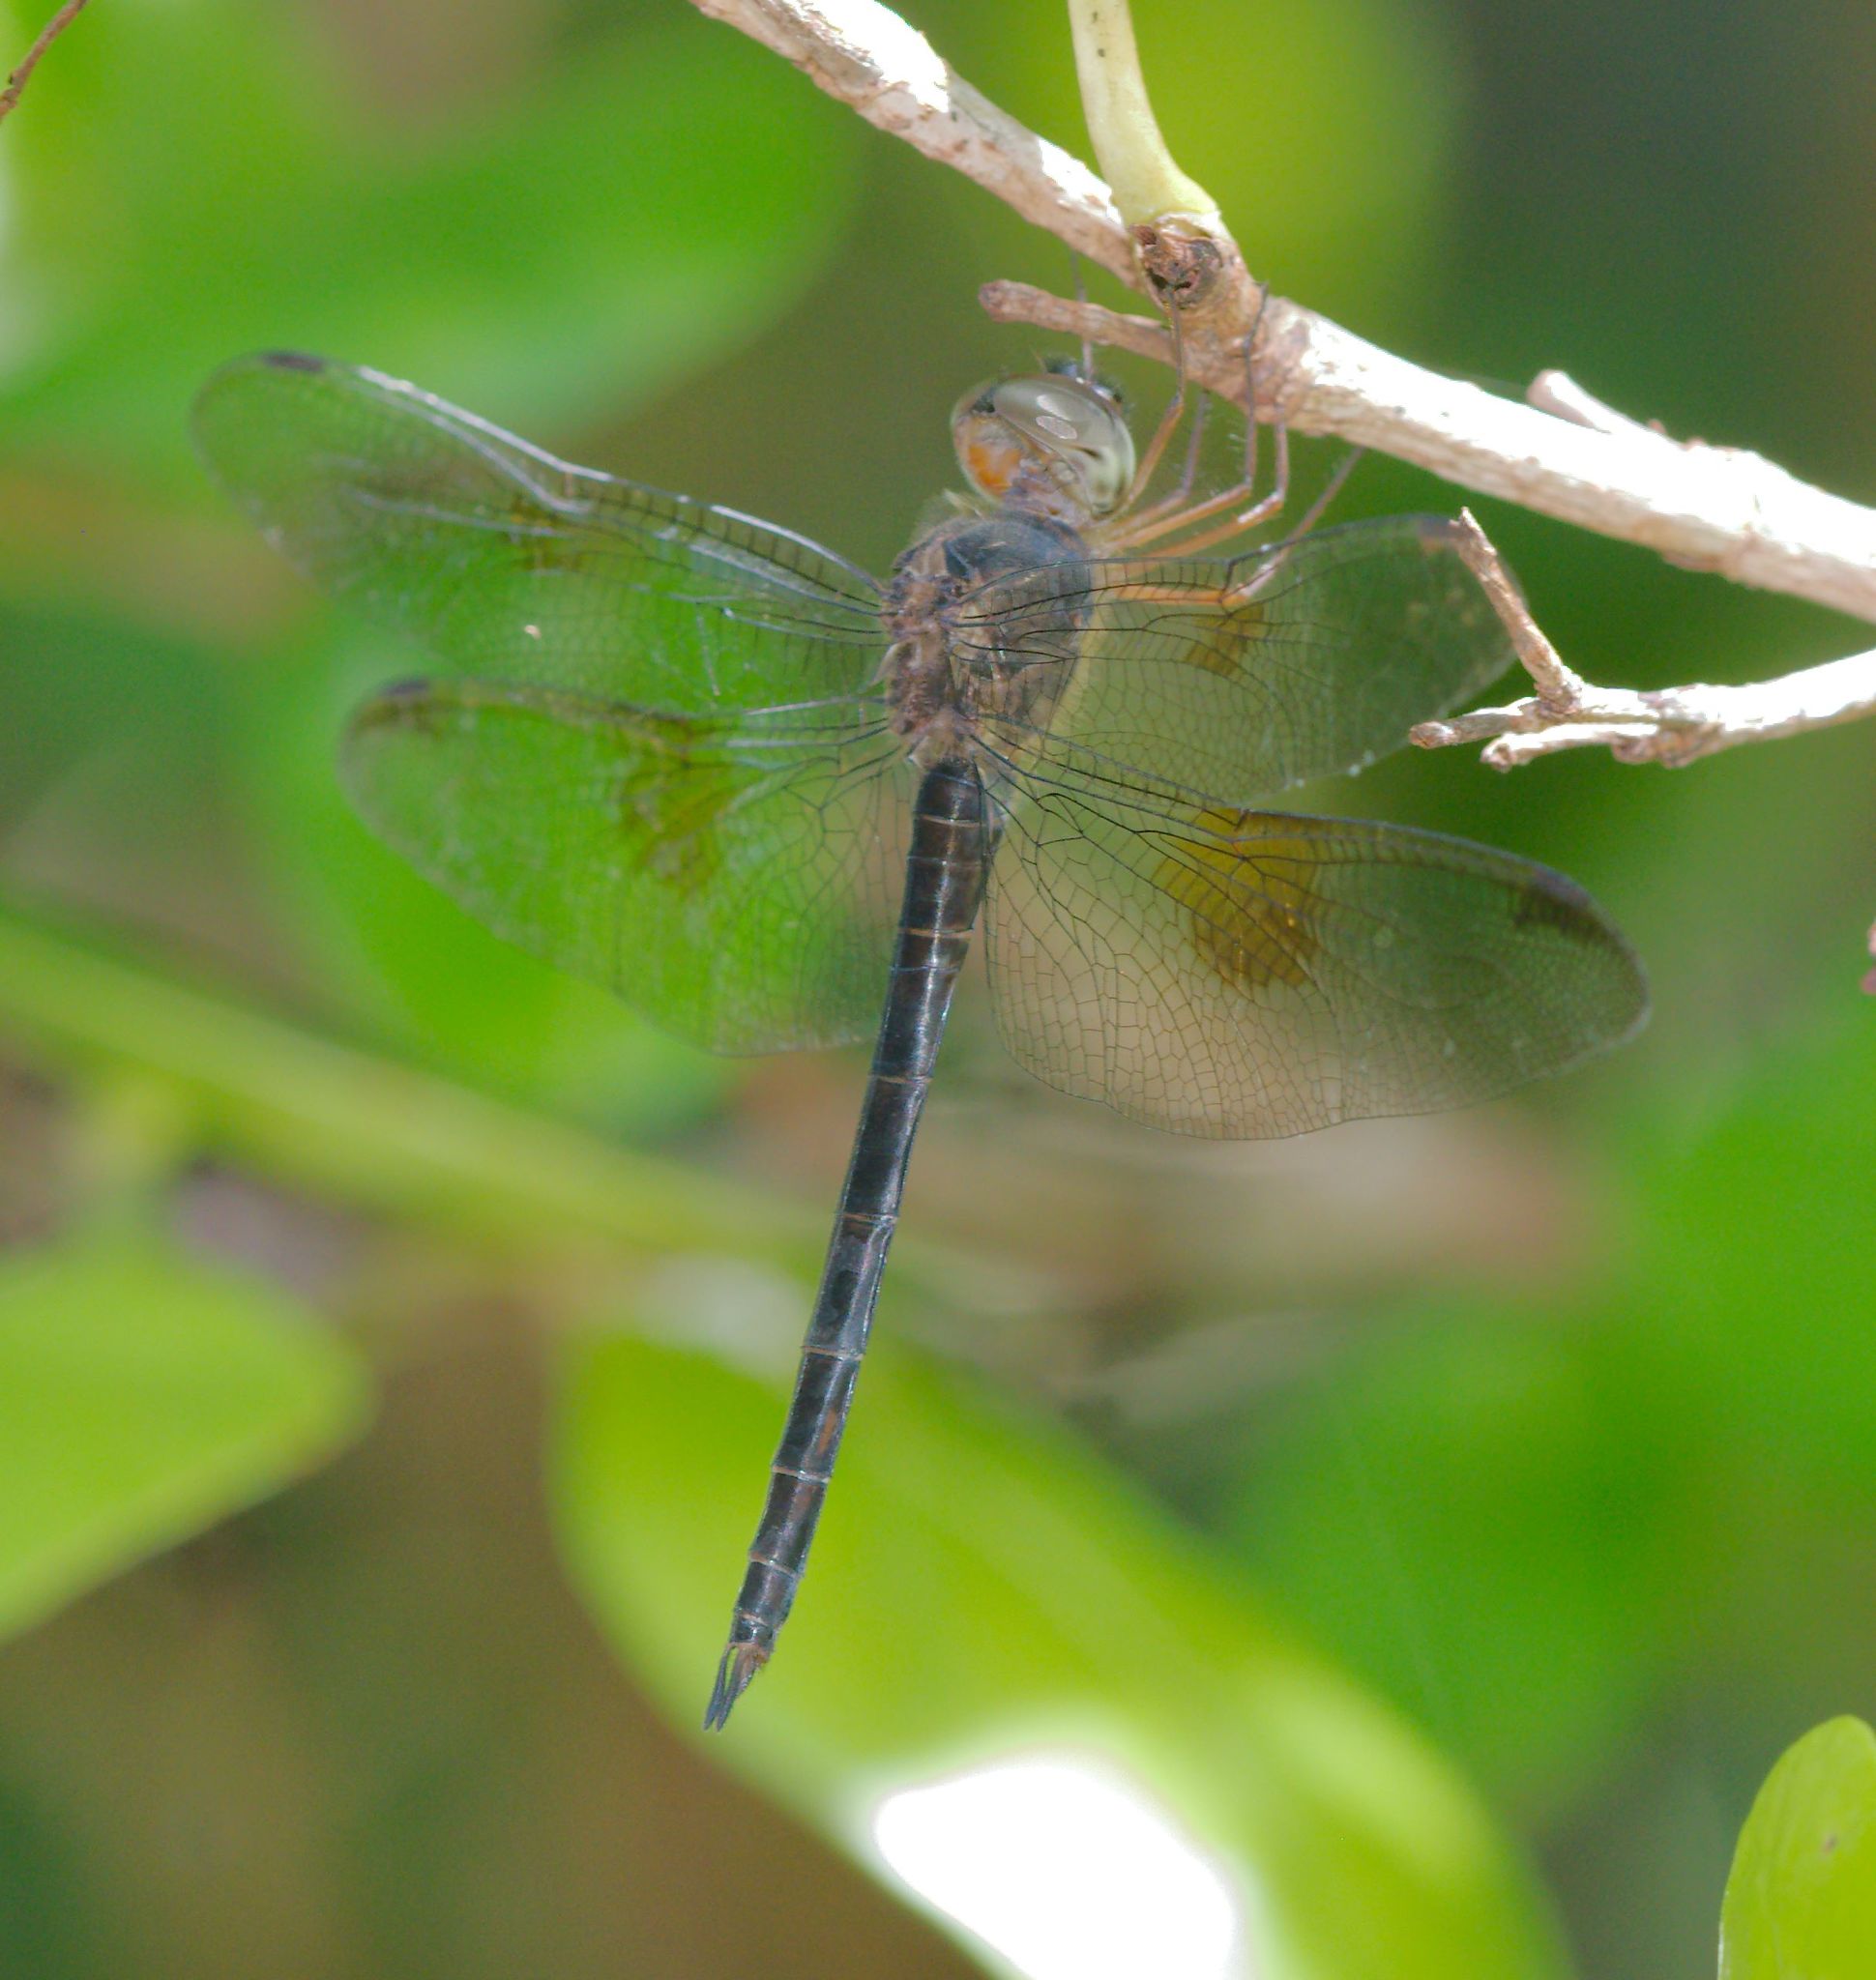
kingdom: Animalia
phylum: Arthropoda
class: Insecta
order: Odonata
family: Libellulidae
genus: Tholymis
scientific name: Tholymis citrina
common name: Evening skimmer
